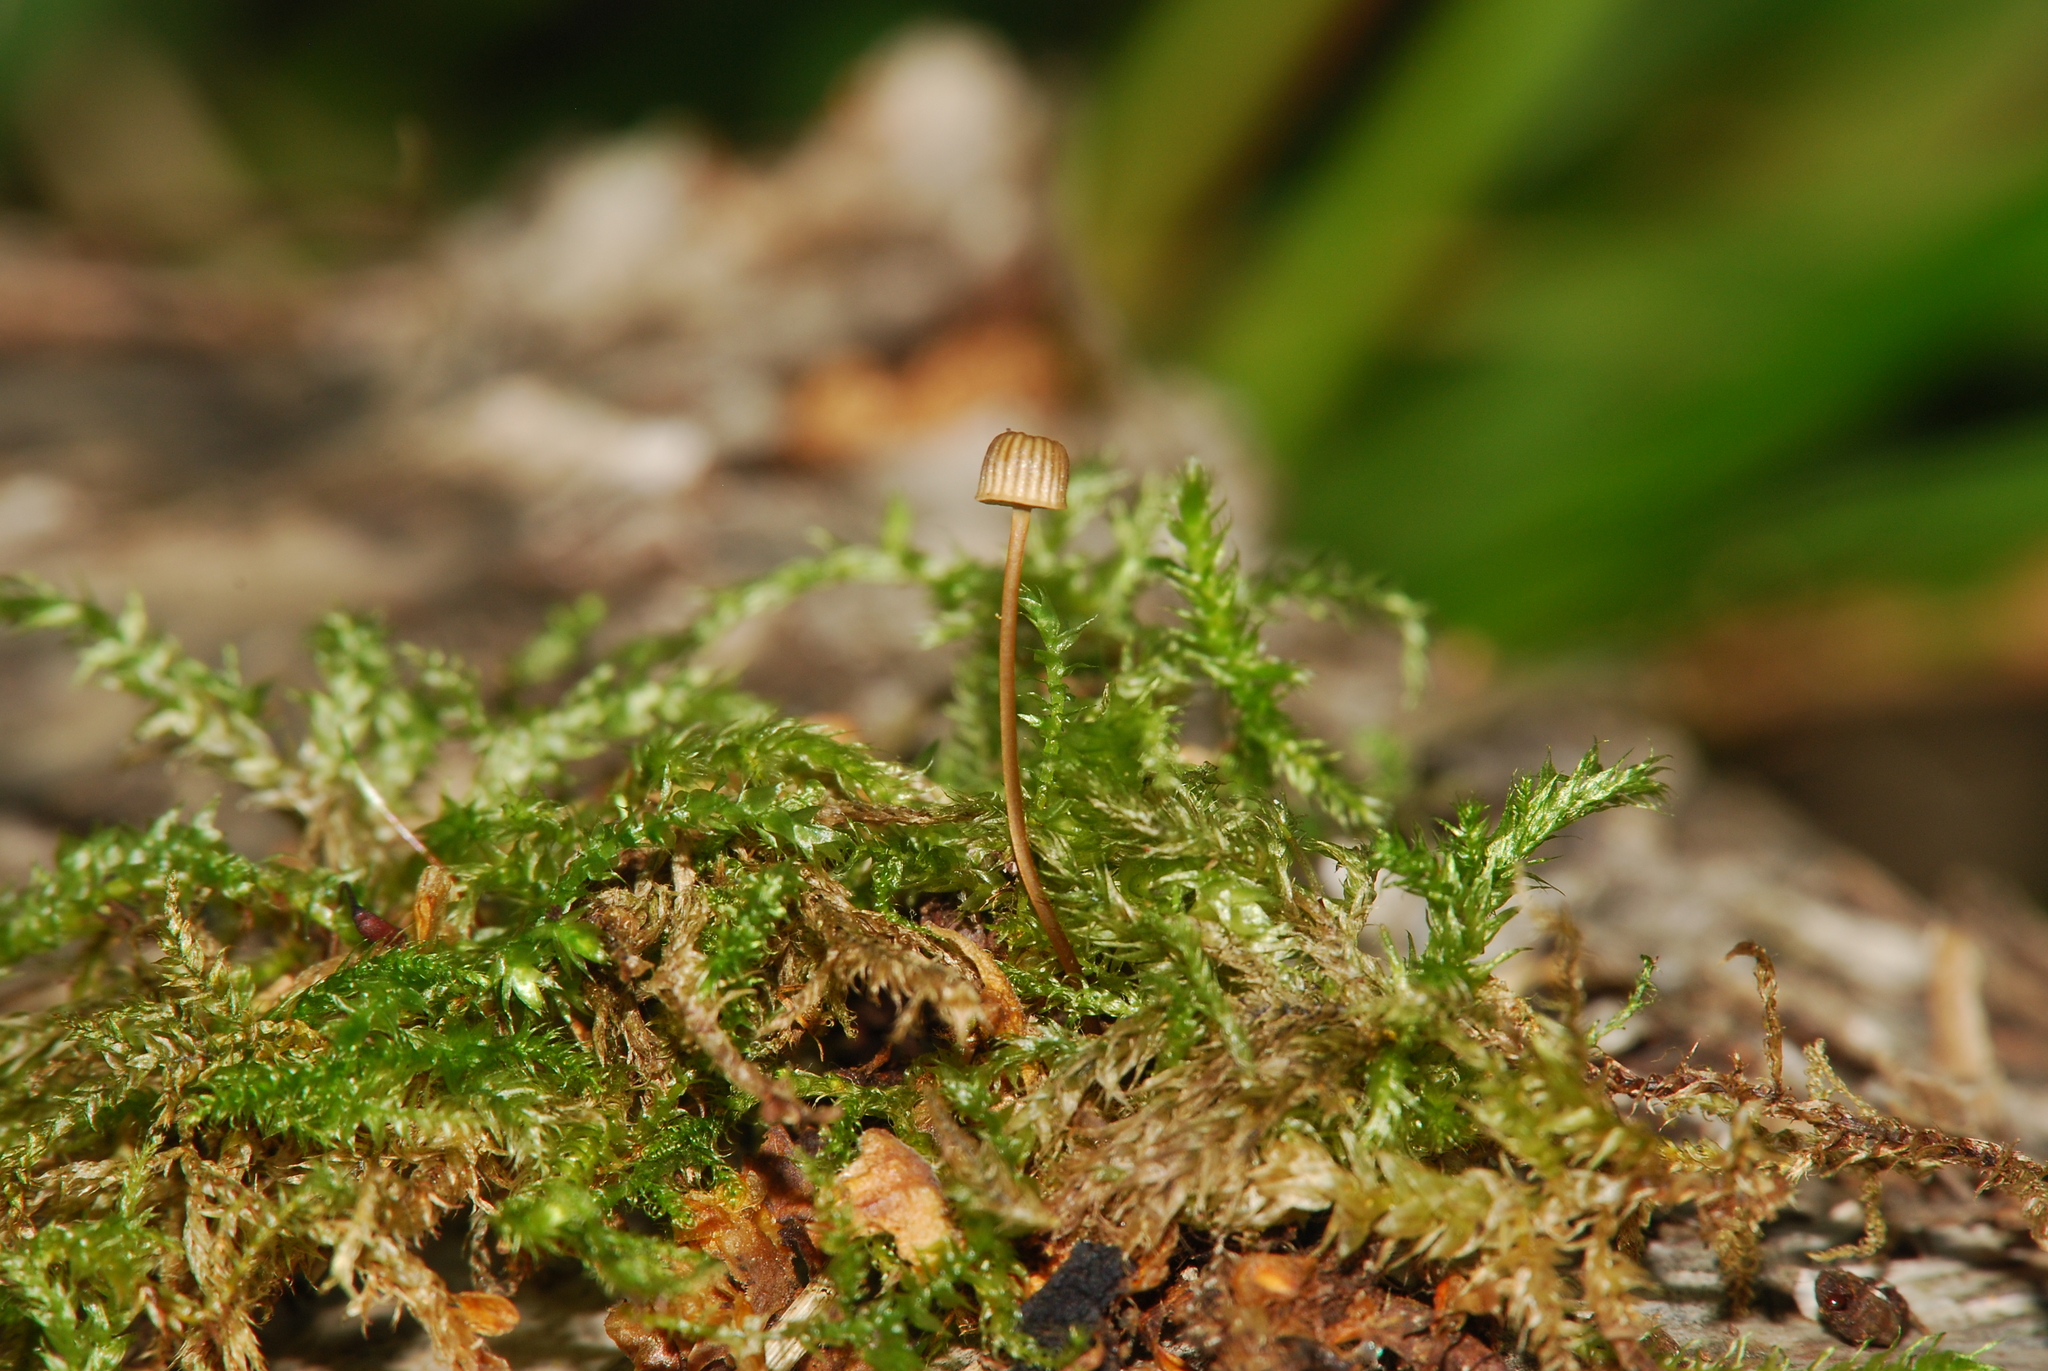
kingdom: Fungi
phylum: Basidiomycota
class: Agaricomycetes
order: Agaricales
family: Mycenaceae
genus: Mycena
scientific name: Mycena picta
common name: Cryptic bonnet
